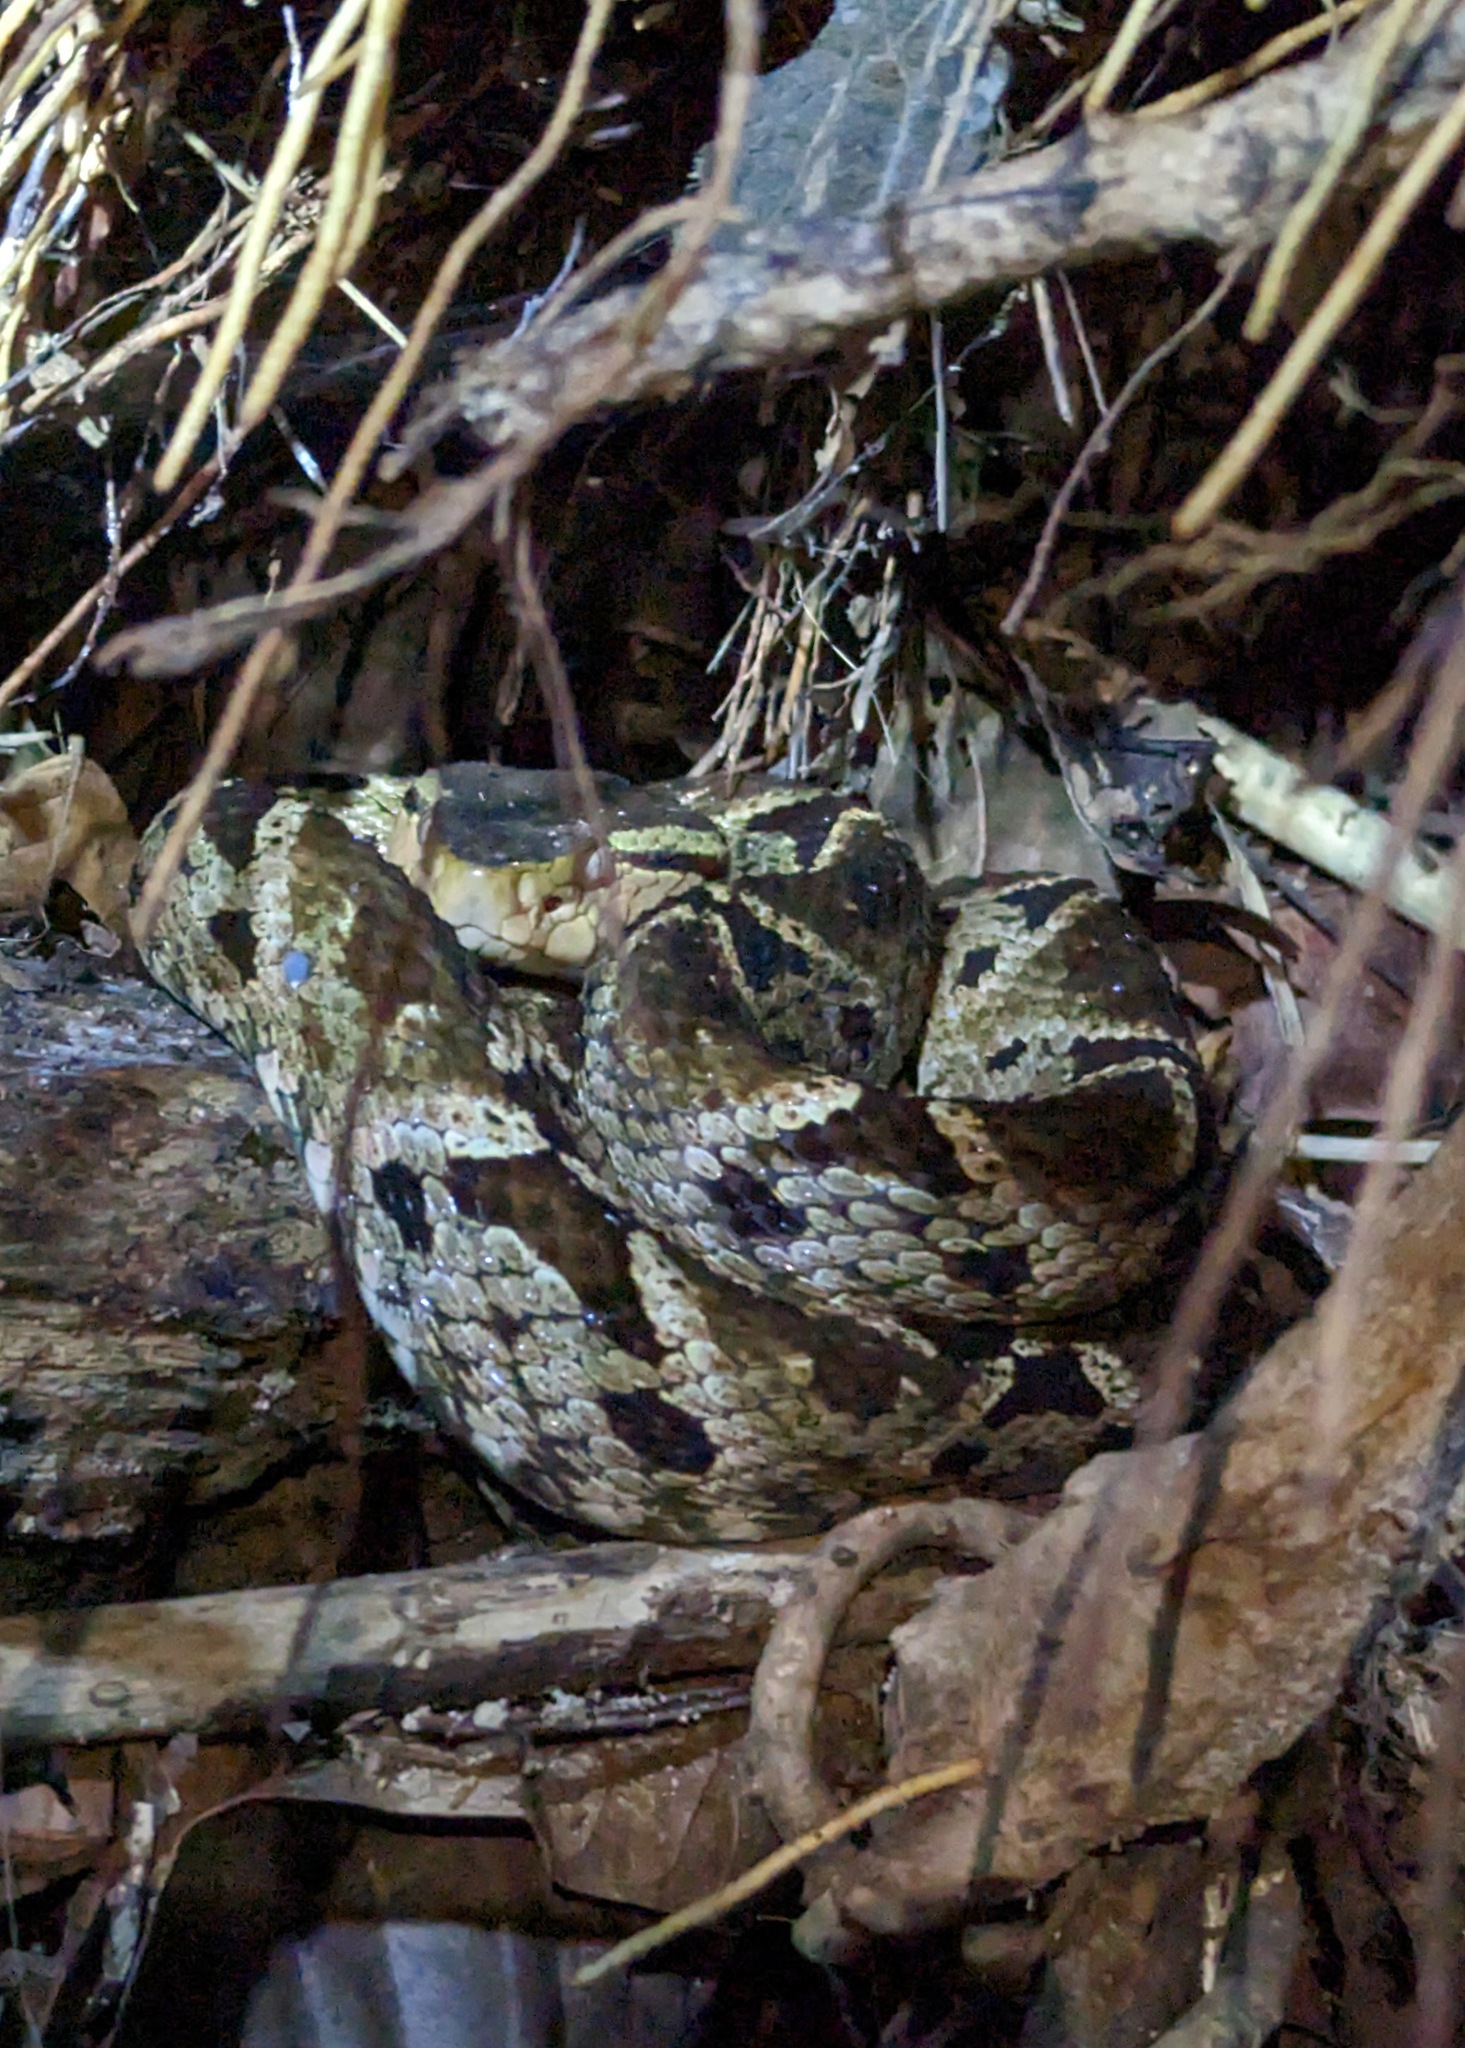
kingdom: Animalia
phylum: Chordata
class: Squamata
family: Viperidae
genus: Bothrops
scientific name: Bothrops asper
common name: Terciopelo
